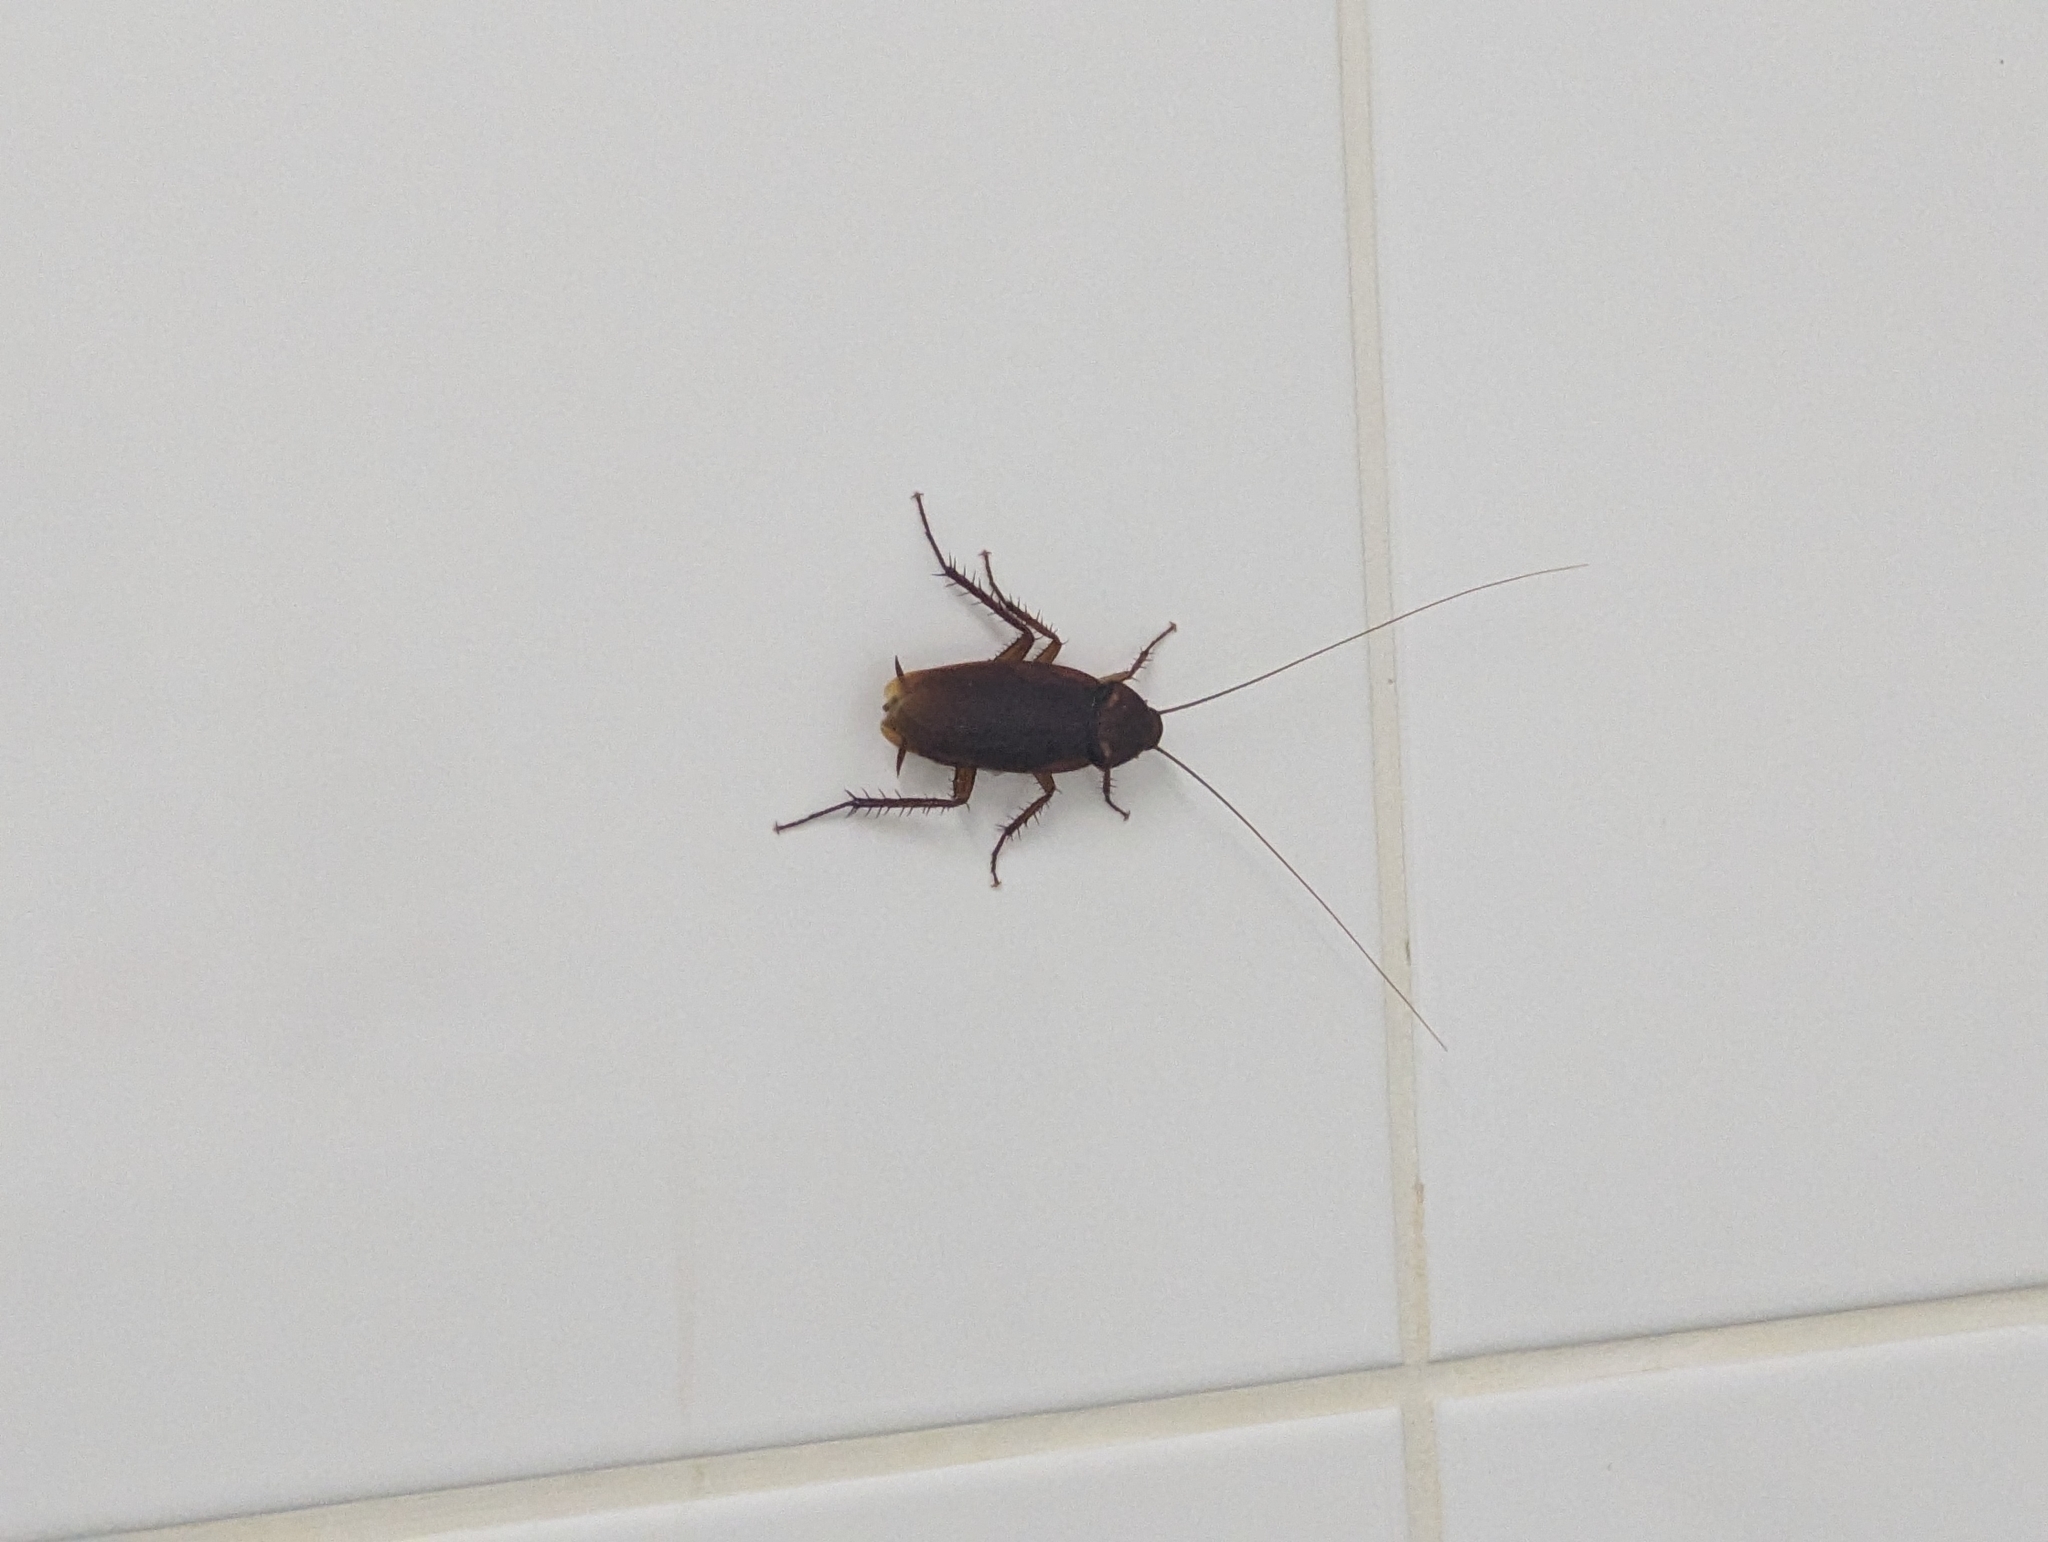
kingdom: Animalia
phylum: Arthropoda
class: Insecta
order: Blattodea
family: Blattidae
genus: Periplaneta
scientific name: Periplaneta americana
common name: American cockroach
